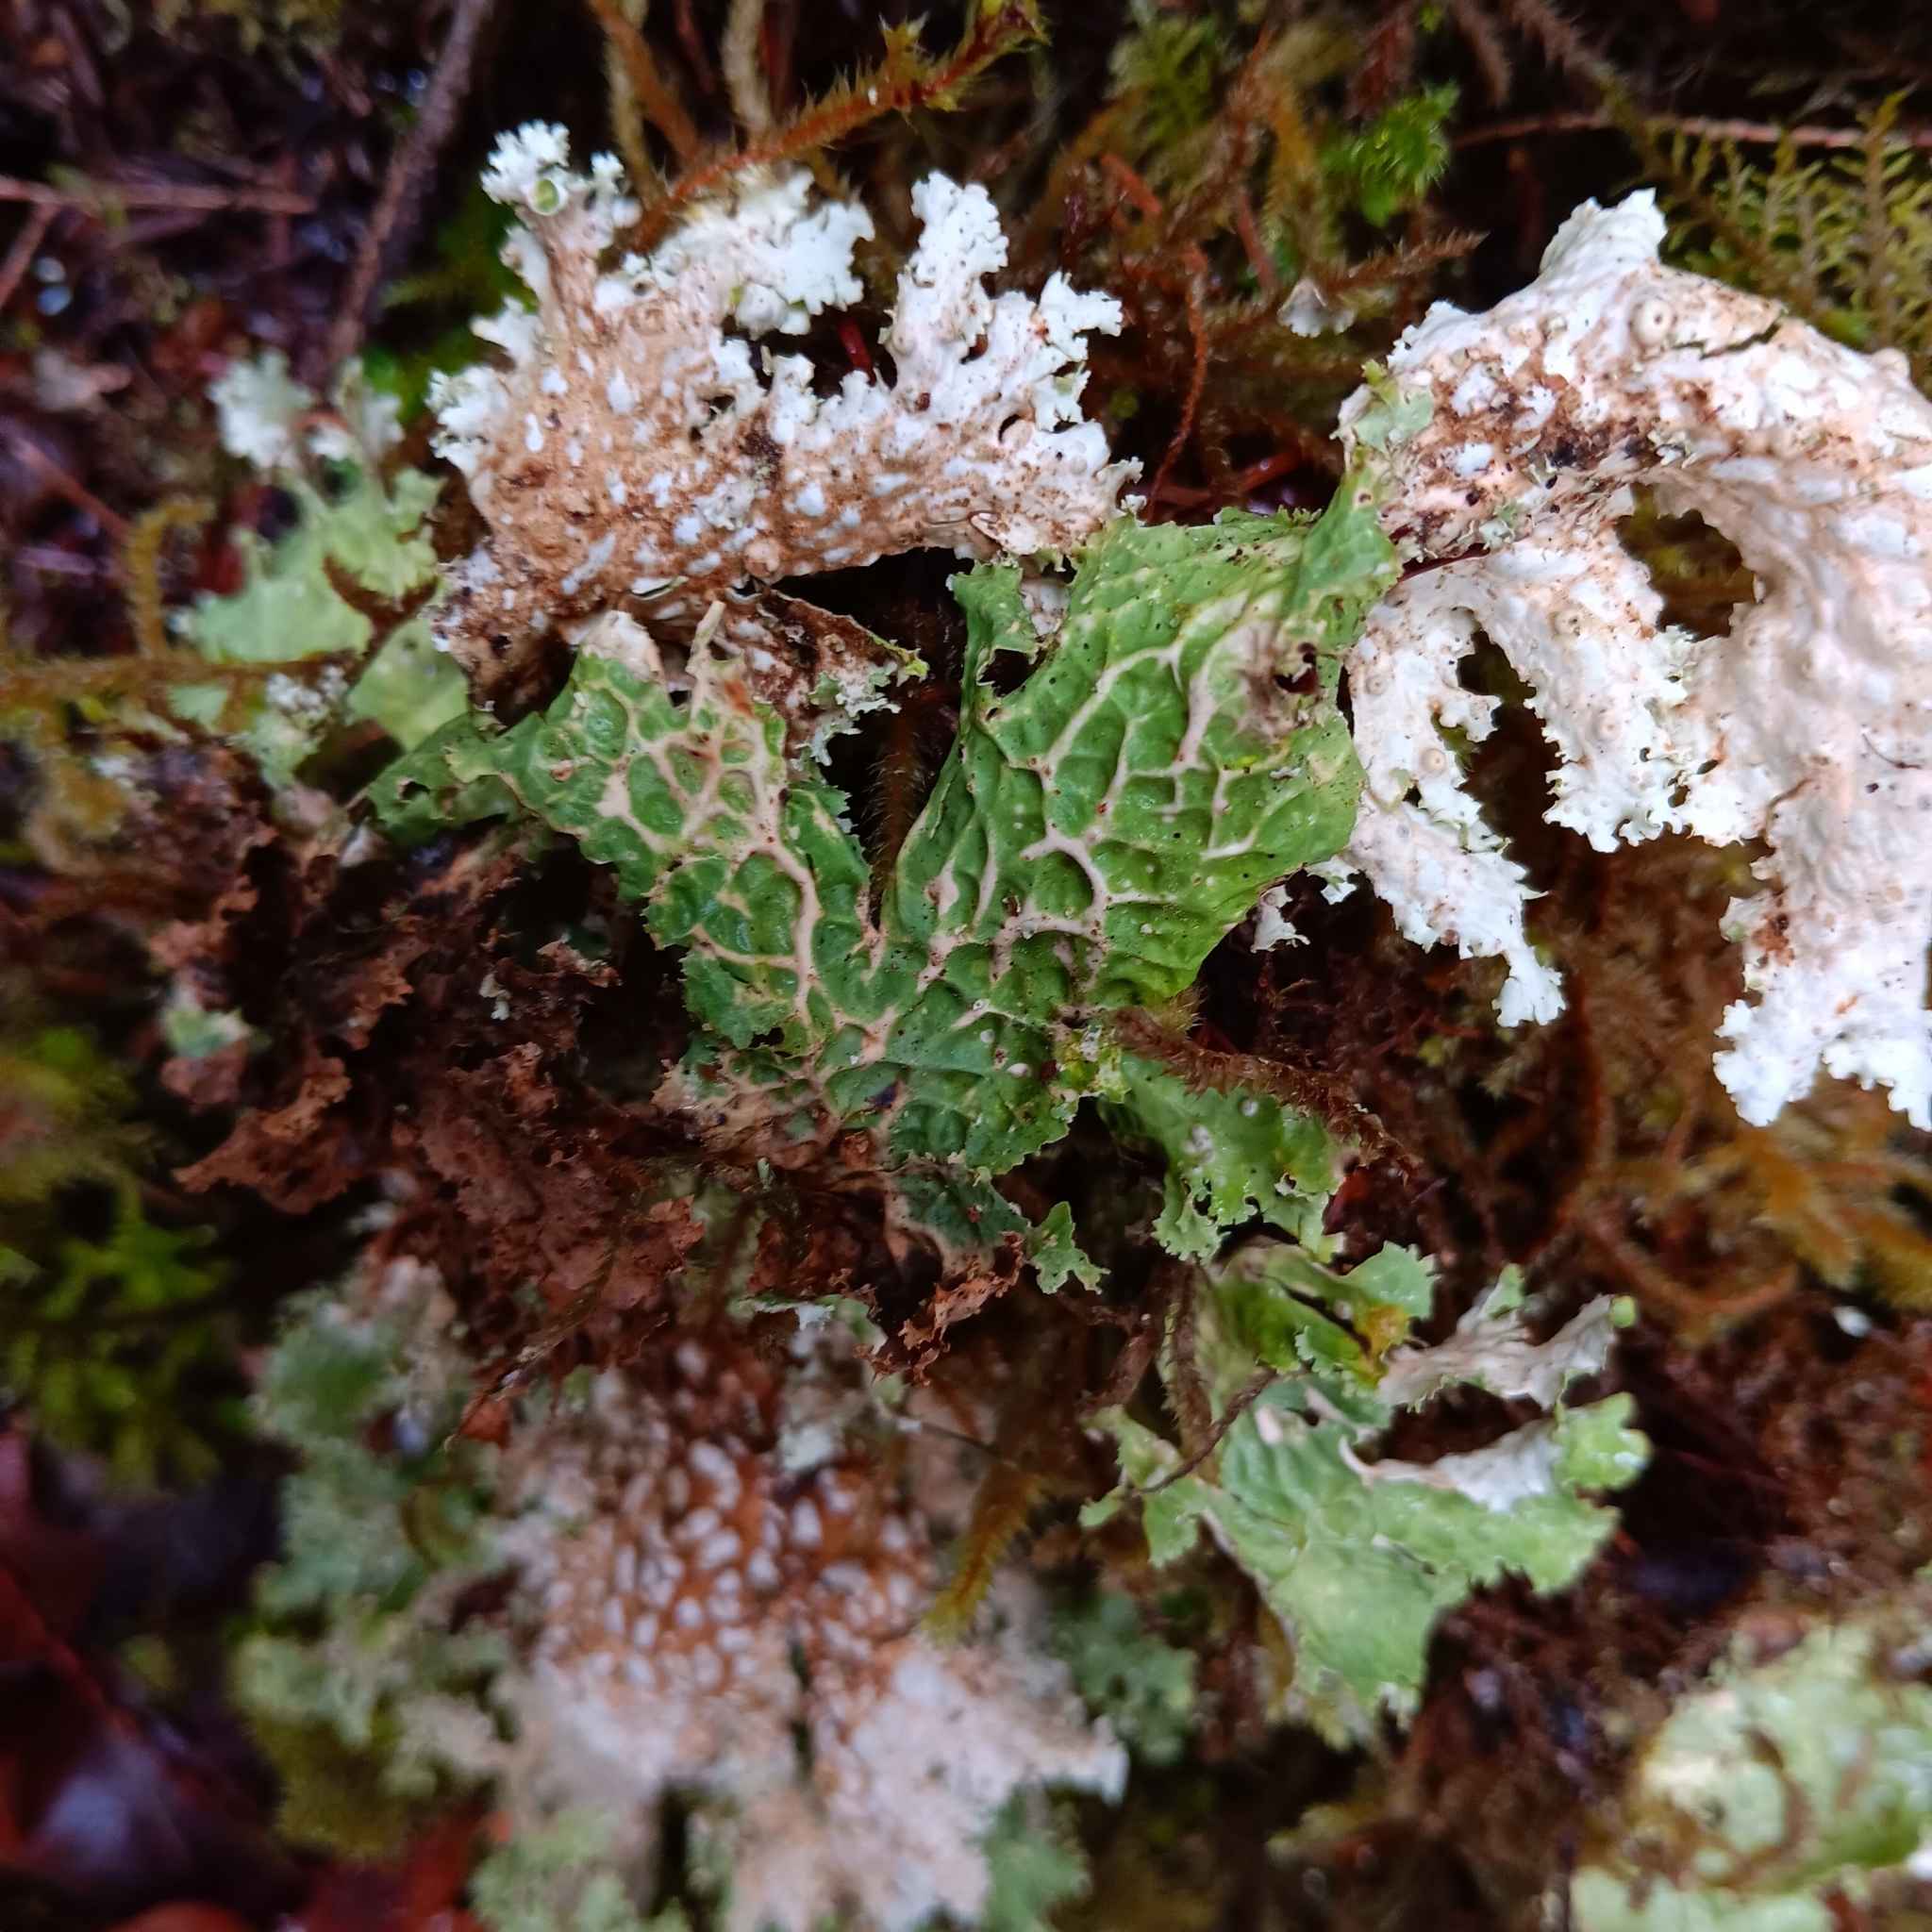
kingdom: Fungi
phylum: Ascomycota
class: Lecanoromycetes
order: Peltigerales
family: Lobariaceae
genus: Lobaria
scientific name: Lobaria oregana
